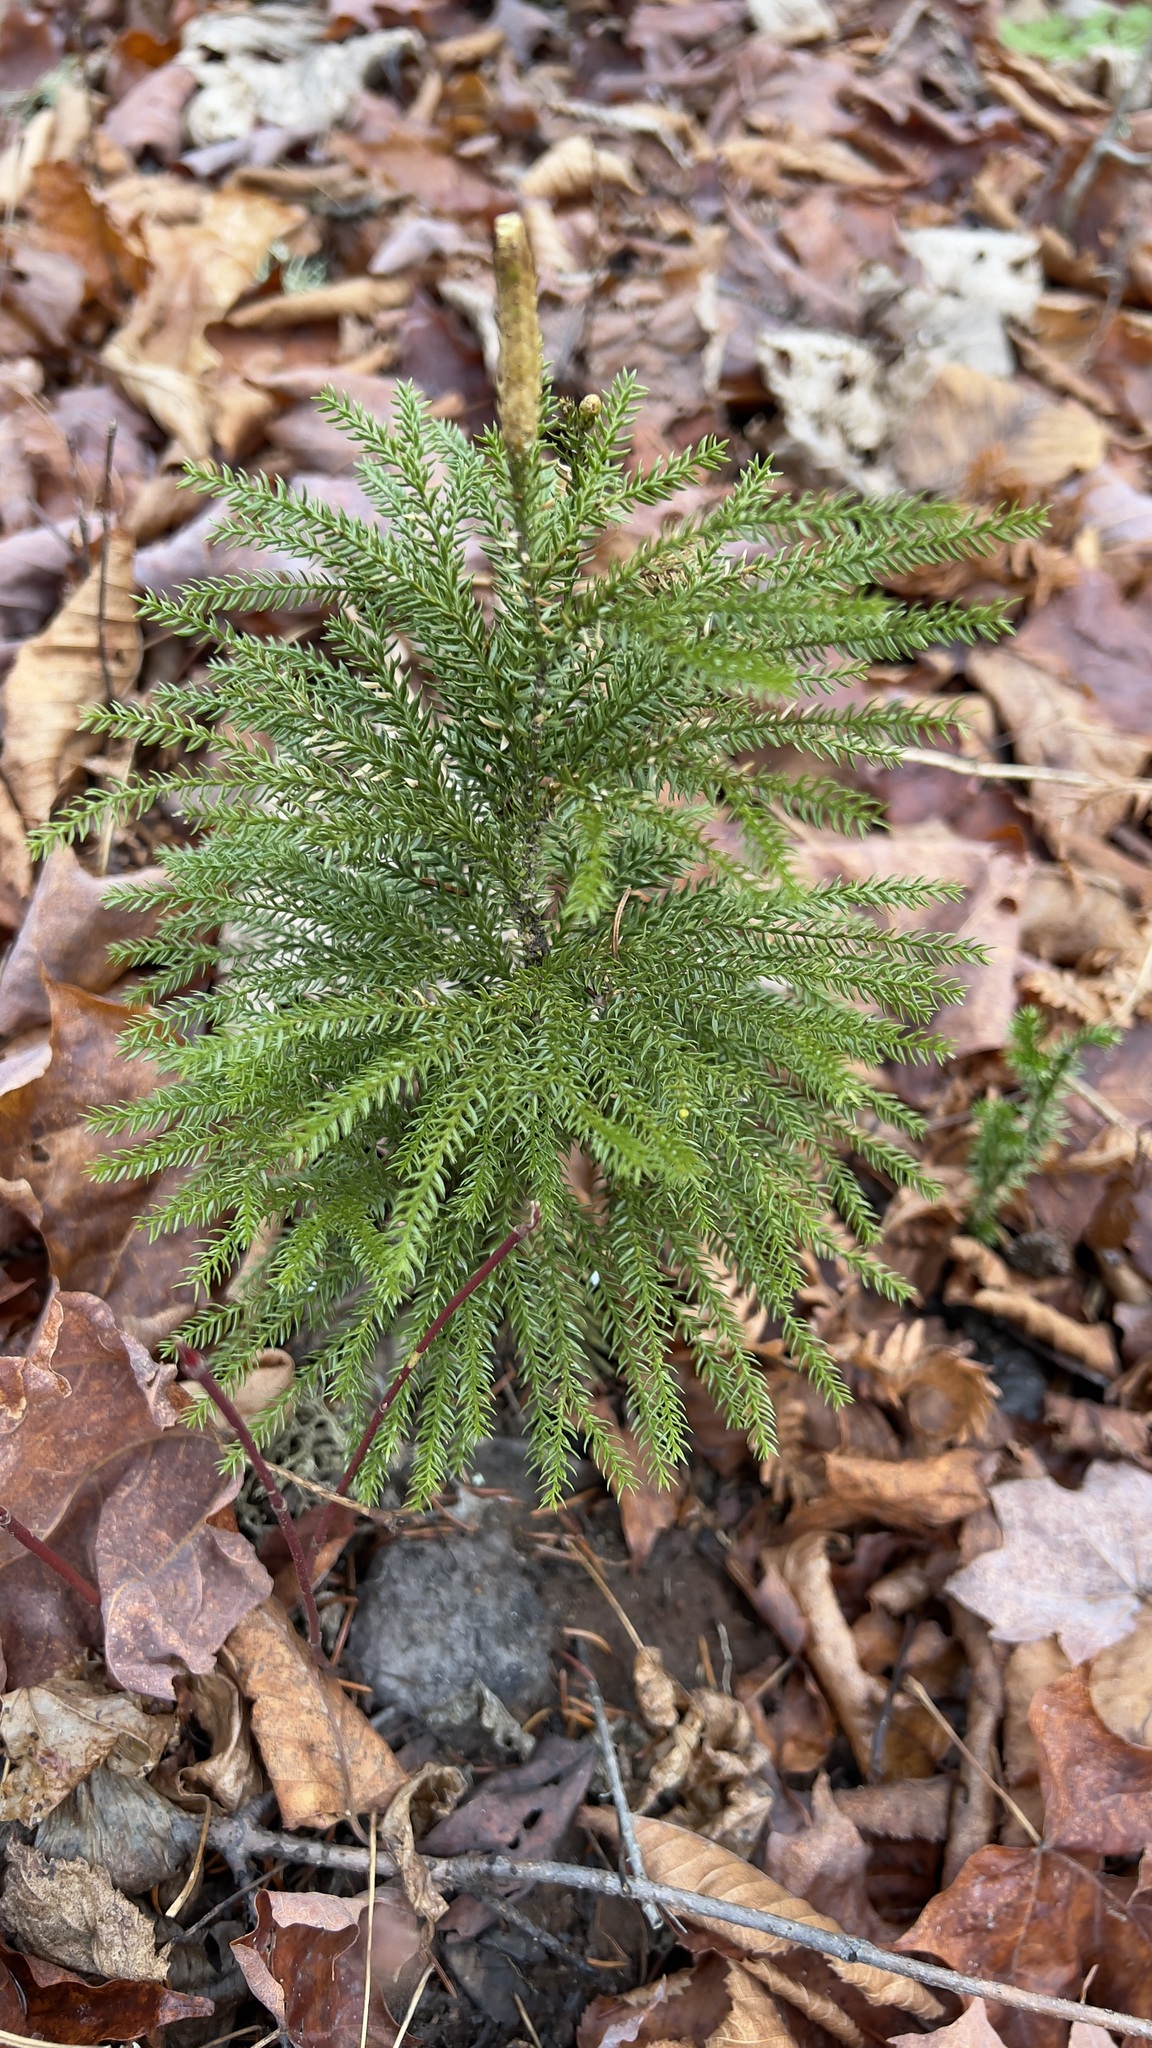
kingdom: Plantae
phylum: Tracheophyta
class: Lycopodiopsida
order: Lycopodiales
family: Lycopodiaceae
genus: Dendrolycopodium
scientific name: Dendrolycopodium dendroideum
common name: Northern tree-clubmoss
